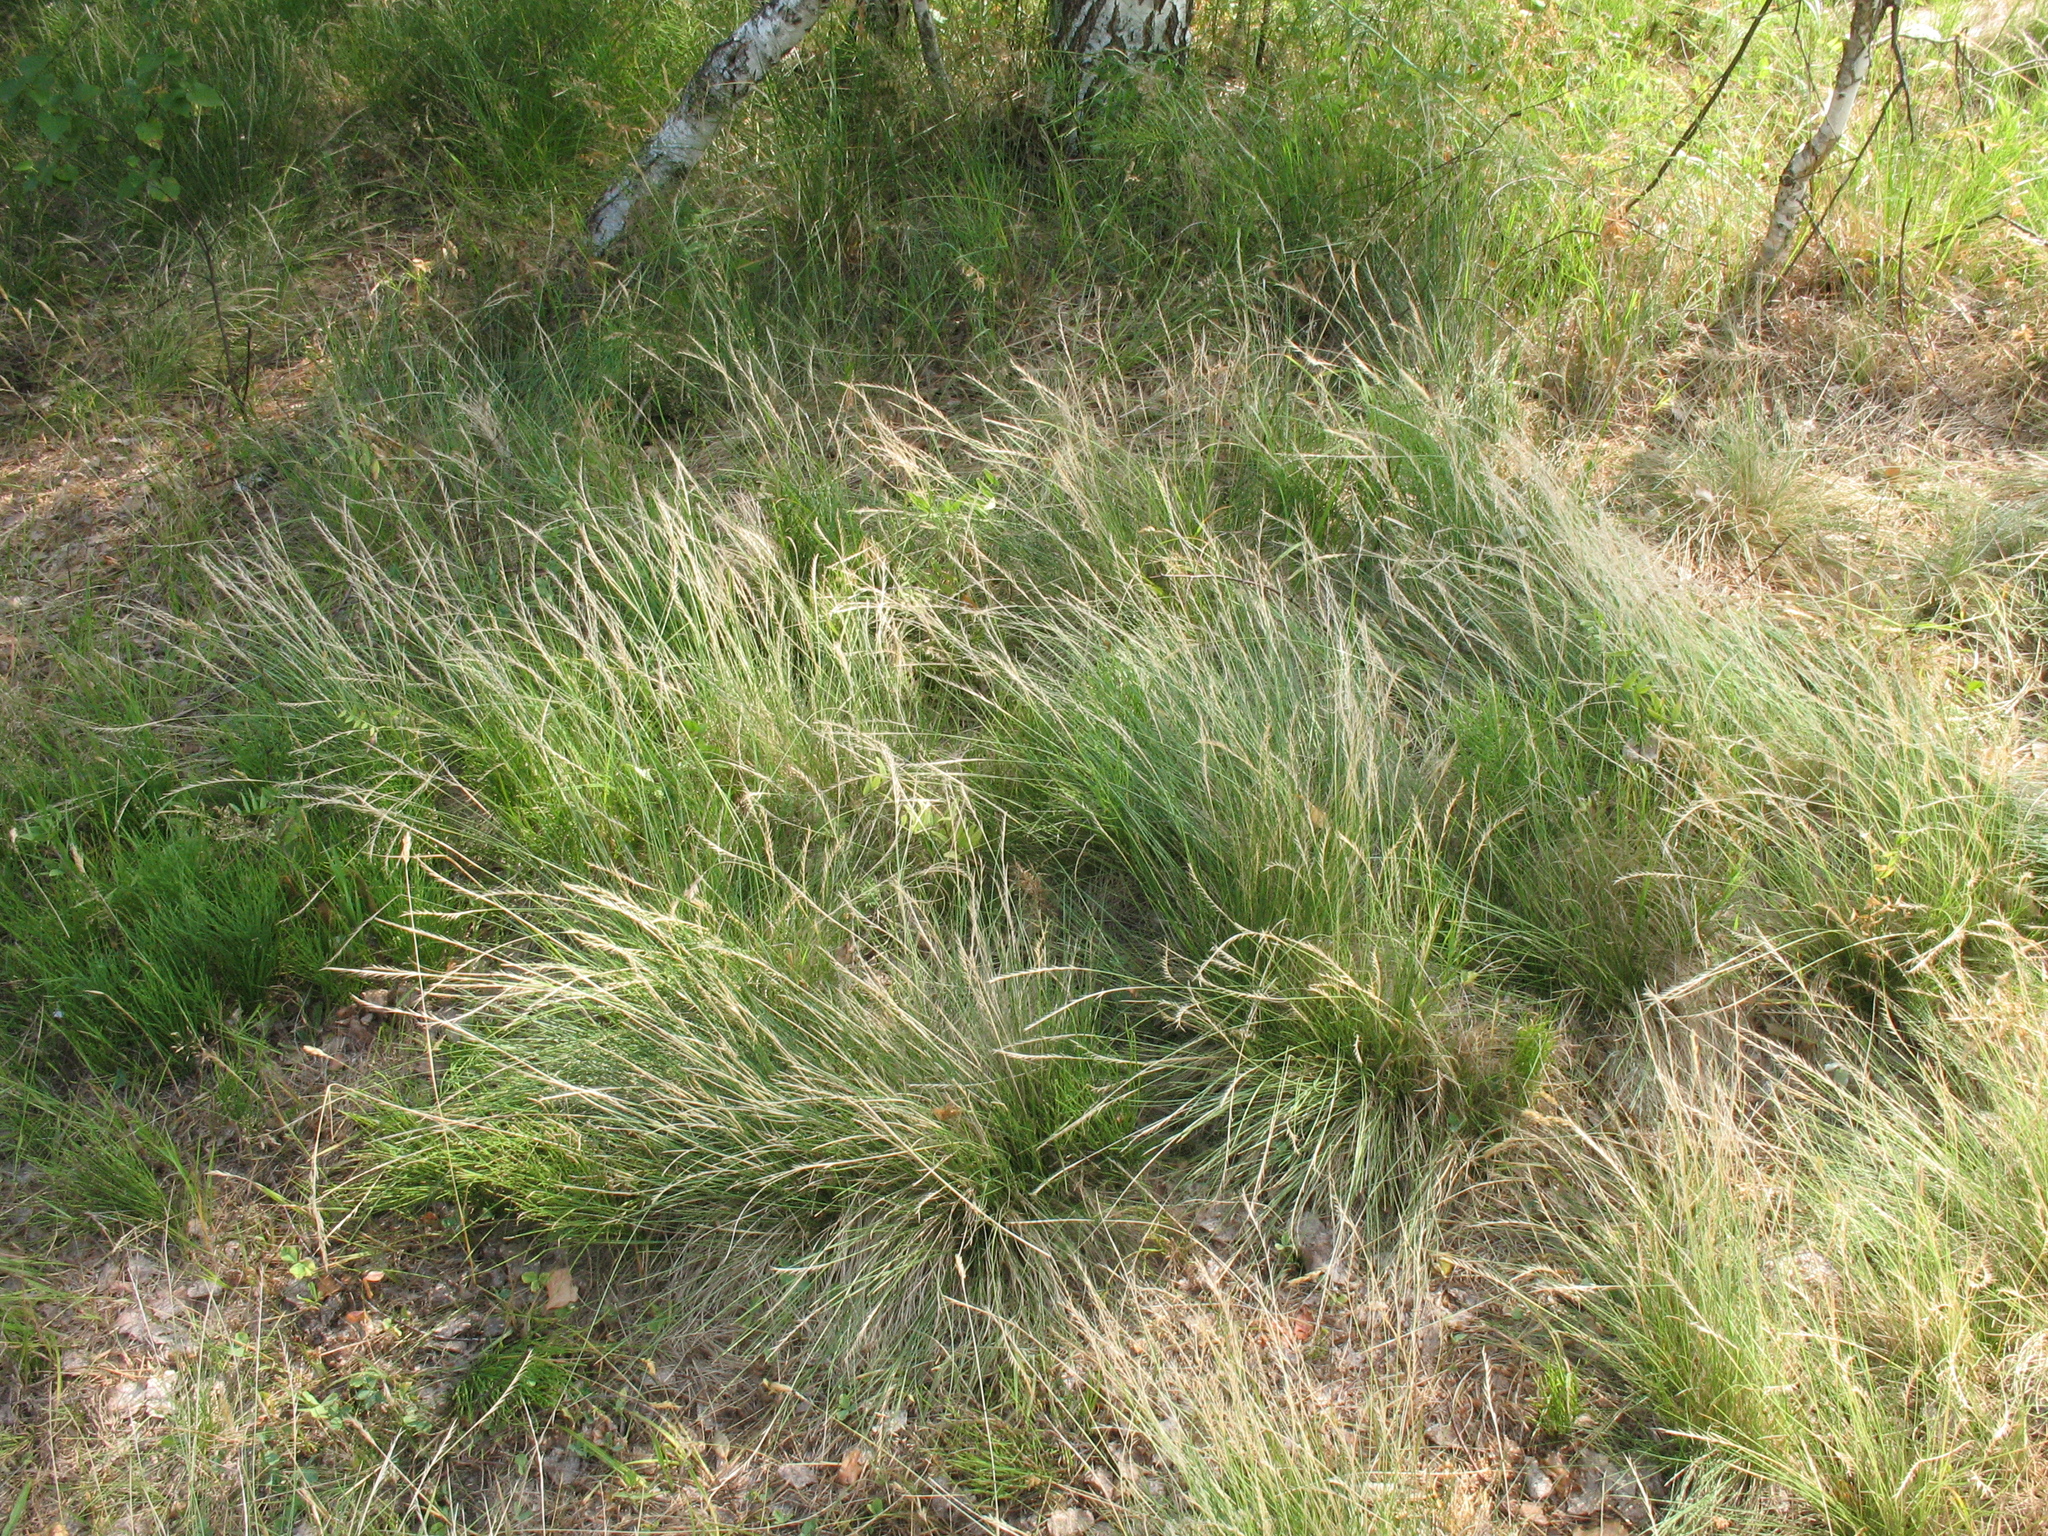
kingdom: Plantae
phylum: Tracheophyta
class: Liliopsida
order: Poales
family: Poaceae
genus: Nardus
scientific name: Nardus stricta
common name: Mat-grass
